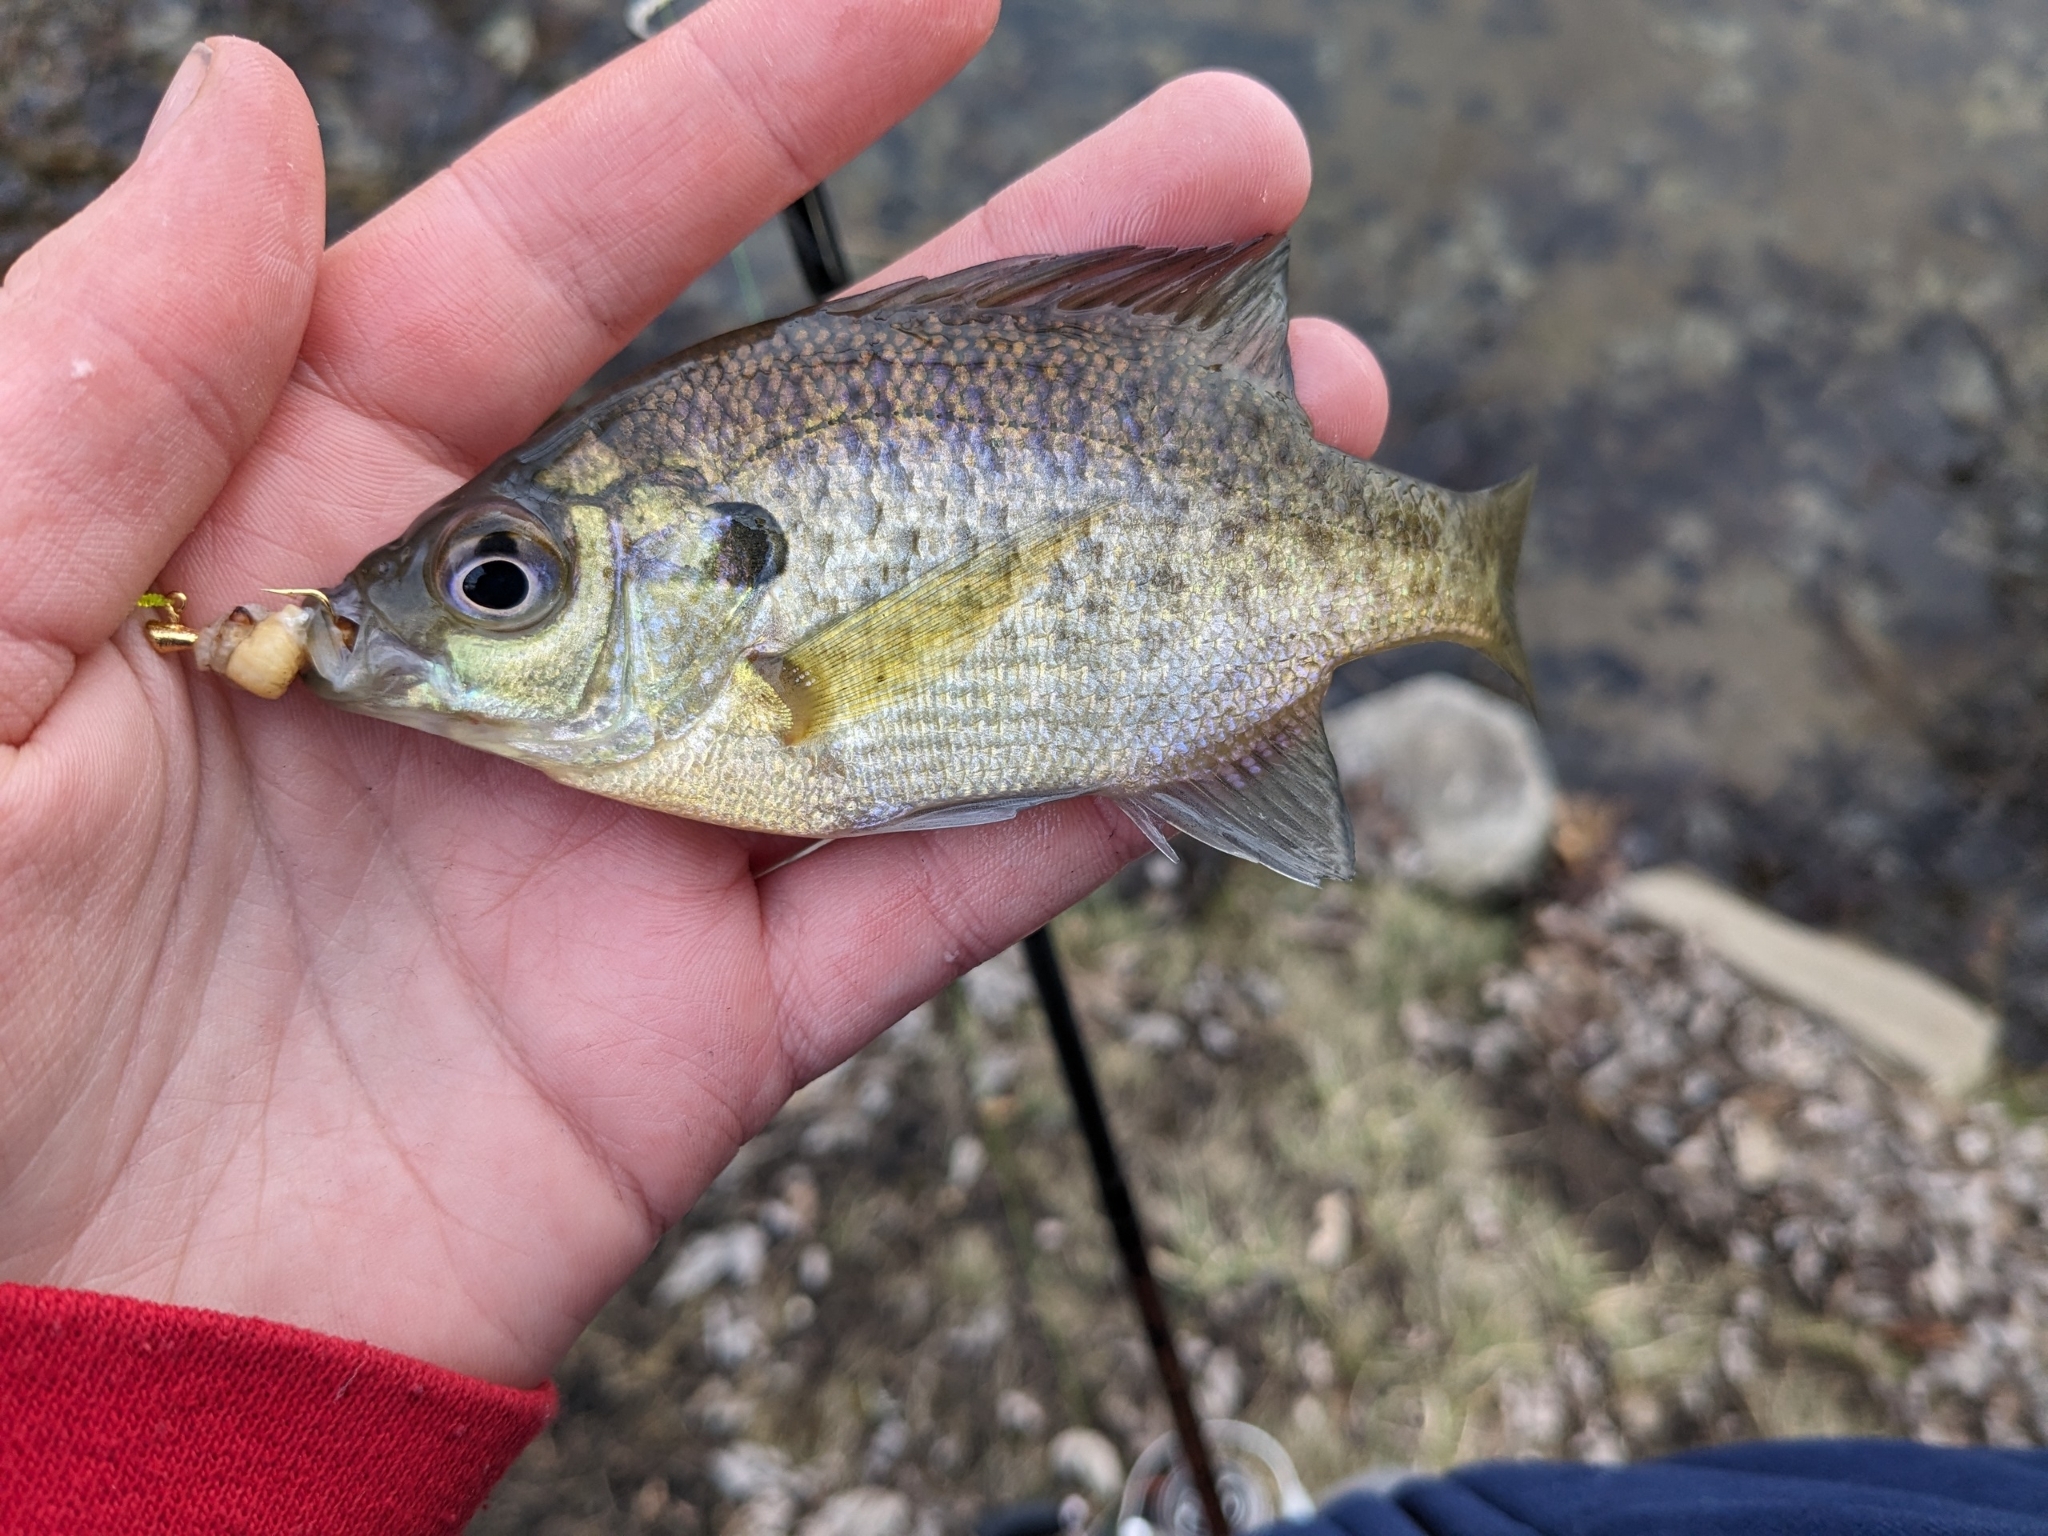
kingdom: Animalia
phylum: Chordata
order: Perciformes
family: Centrarchidae
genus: Lepomis
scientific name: Lepomis macrochirus
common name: Bluegill
